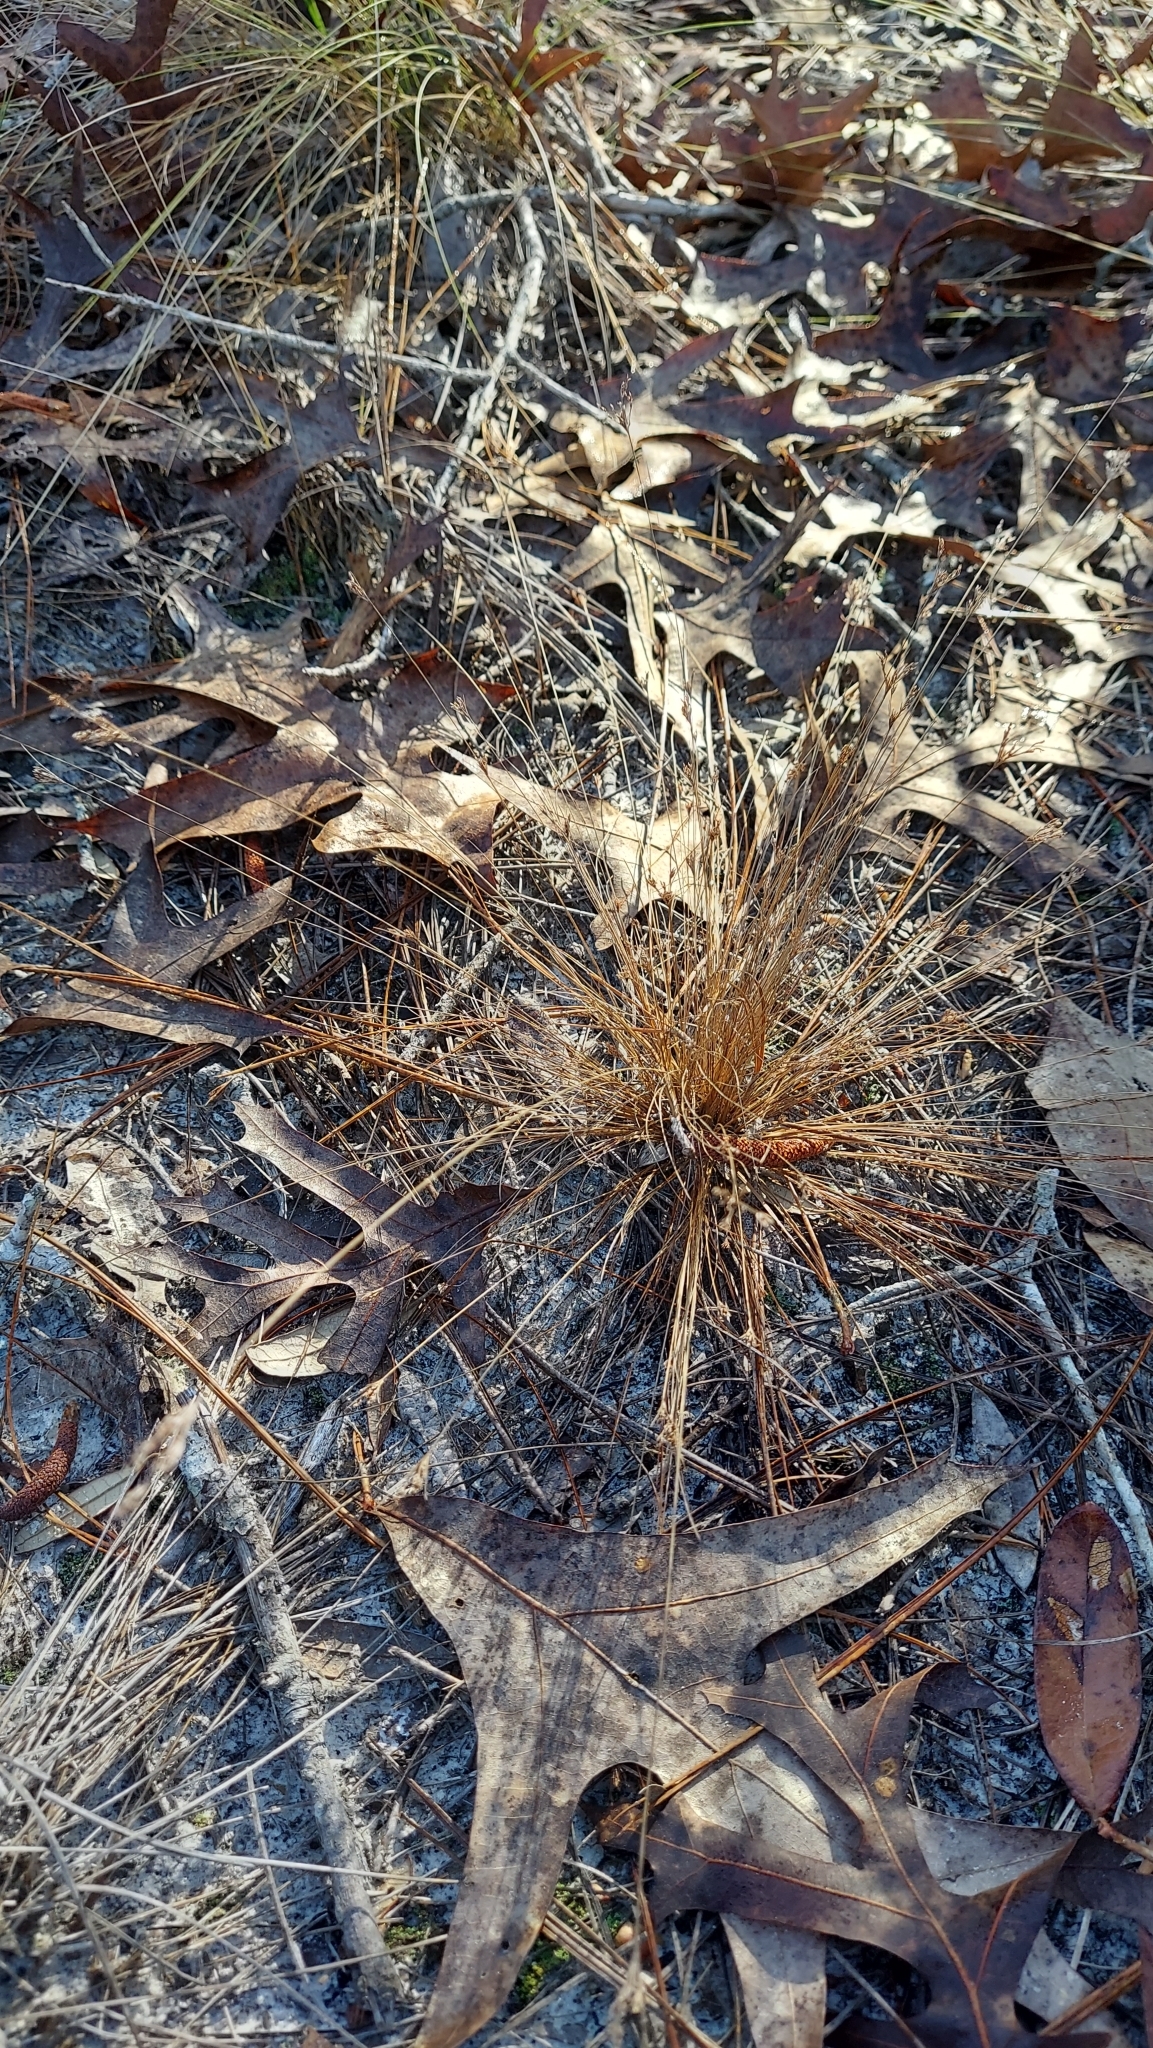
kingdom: Plantae
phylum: Tracheophyta
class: Liliopsida
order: Poales
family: Cyperaceae
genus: Bulbostylis
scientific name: Bulbostylis ciliatifolia
